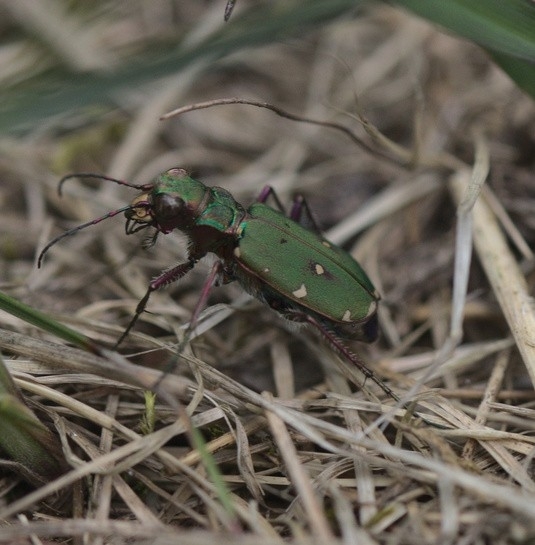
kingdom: Animalia
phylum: Arthropoda
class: Insecta
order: Coleoptera
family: Carabidae
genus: Cicindela
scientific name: Cicindela campestris
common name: Common tiger beetle
